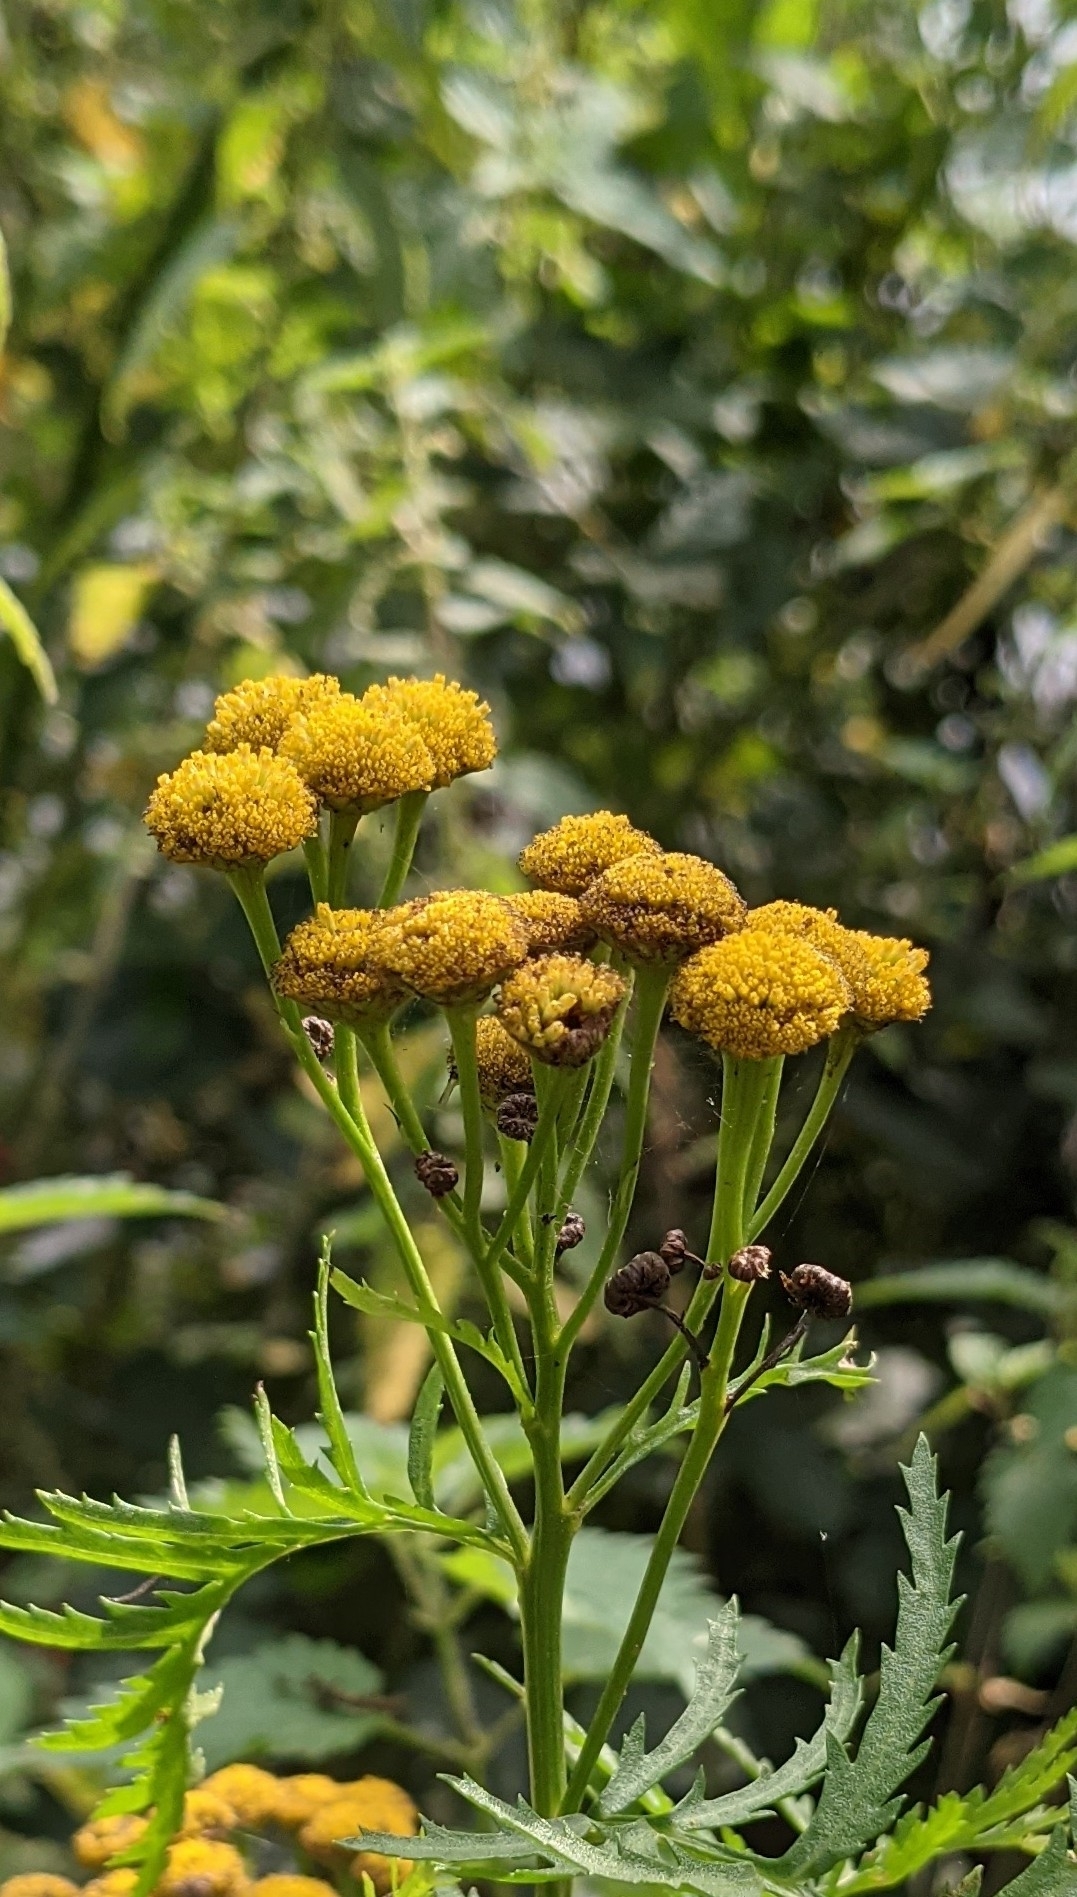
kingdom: Plantae
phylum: Tracheophyta
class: Magnoliopsida
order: Asterales
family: Asteraceae
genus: Tanacetum
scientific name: Tanacetum vulgare
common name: Common tansy
